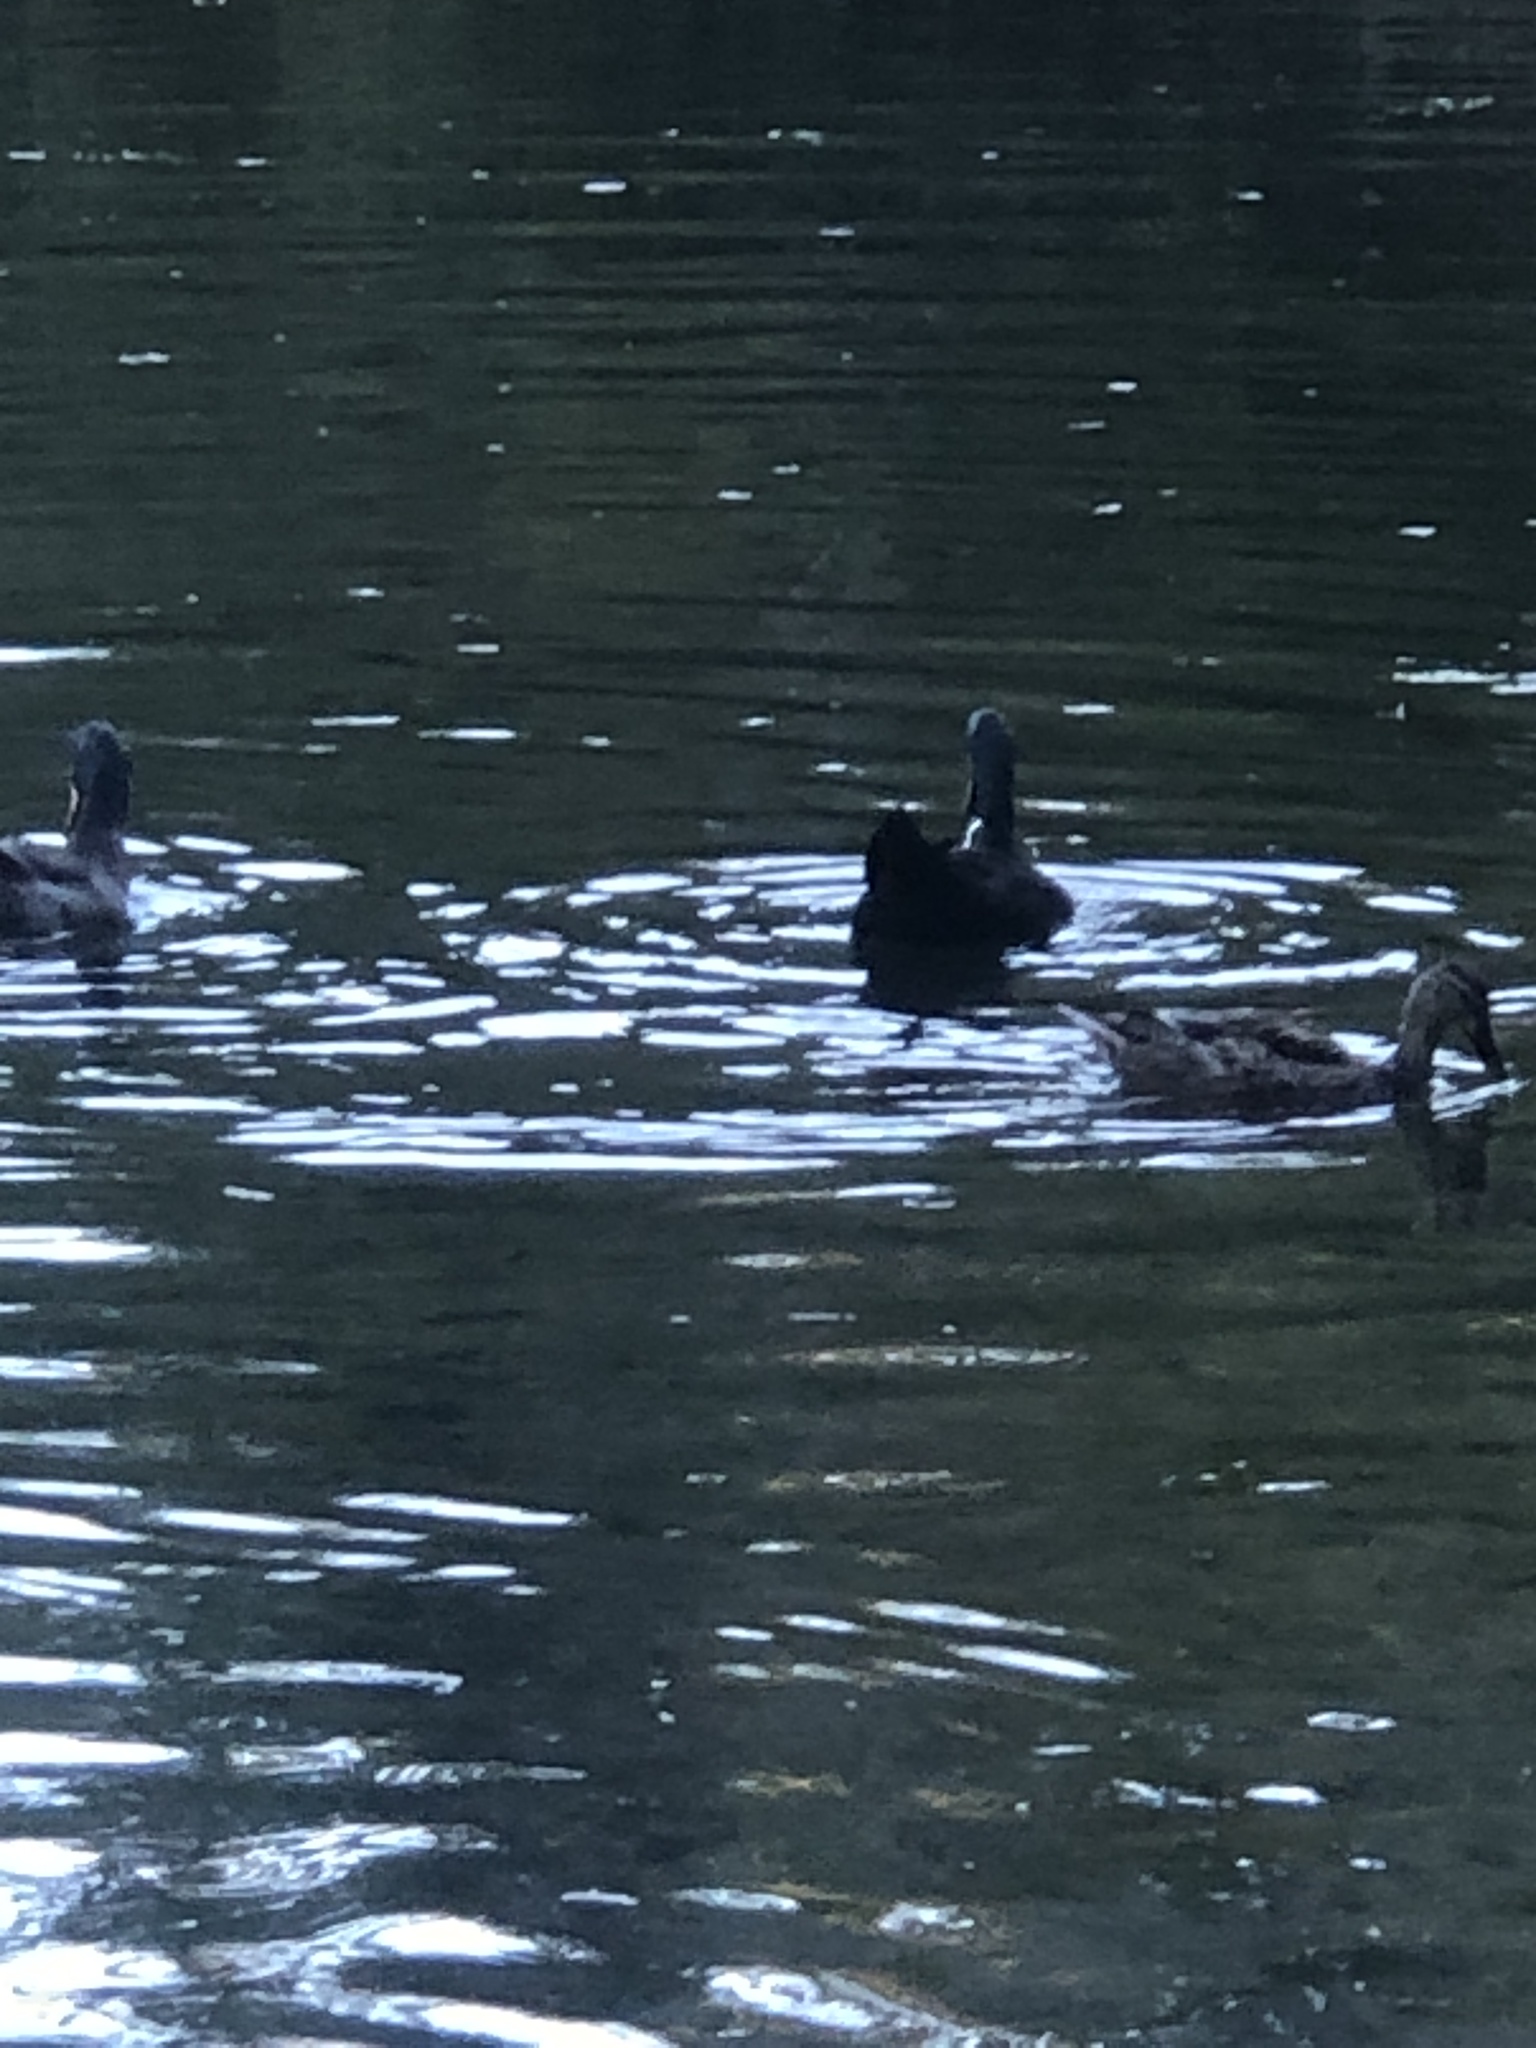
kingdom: Animalia
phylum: Chordata
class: Aves
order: Anseriformes
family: Anatidae
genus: Anas
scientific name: Anas platyrhynchos
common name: Mallard
